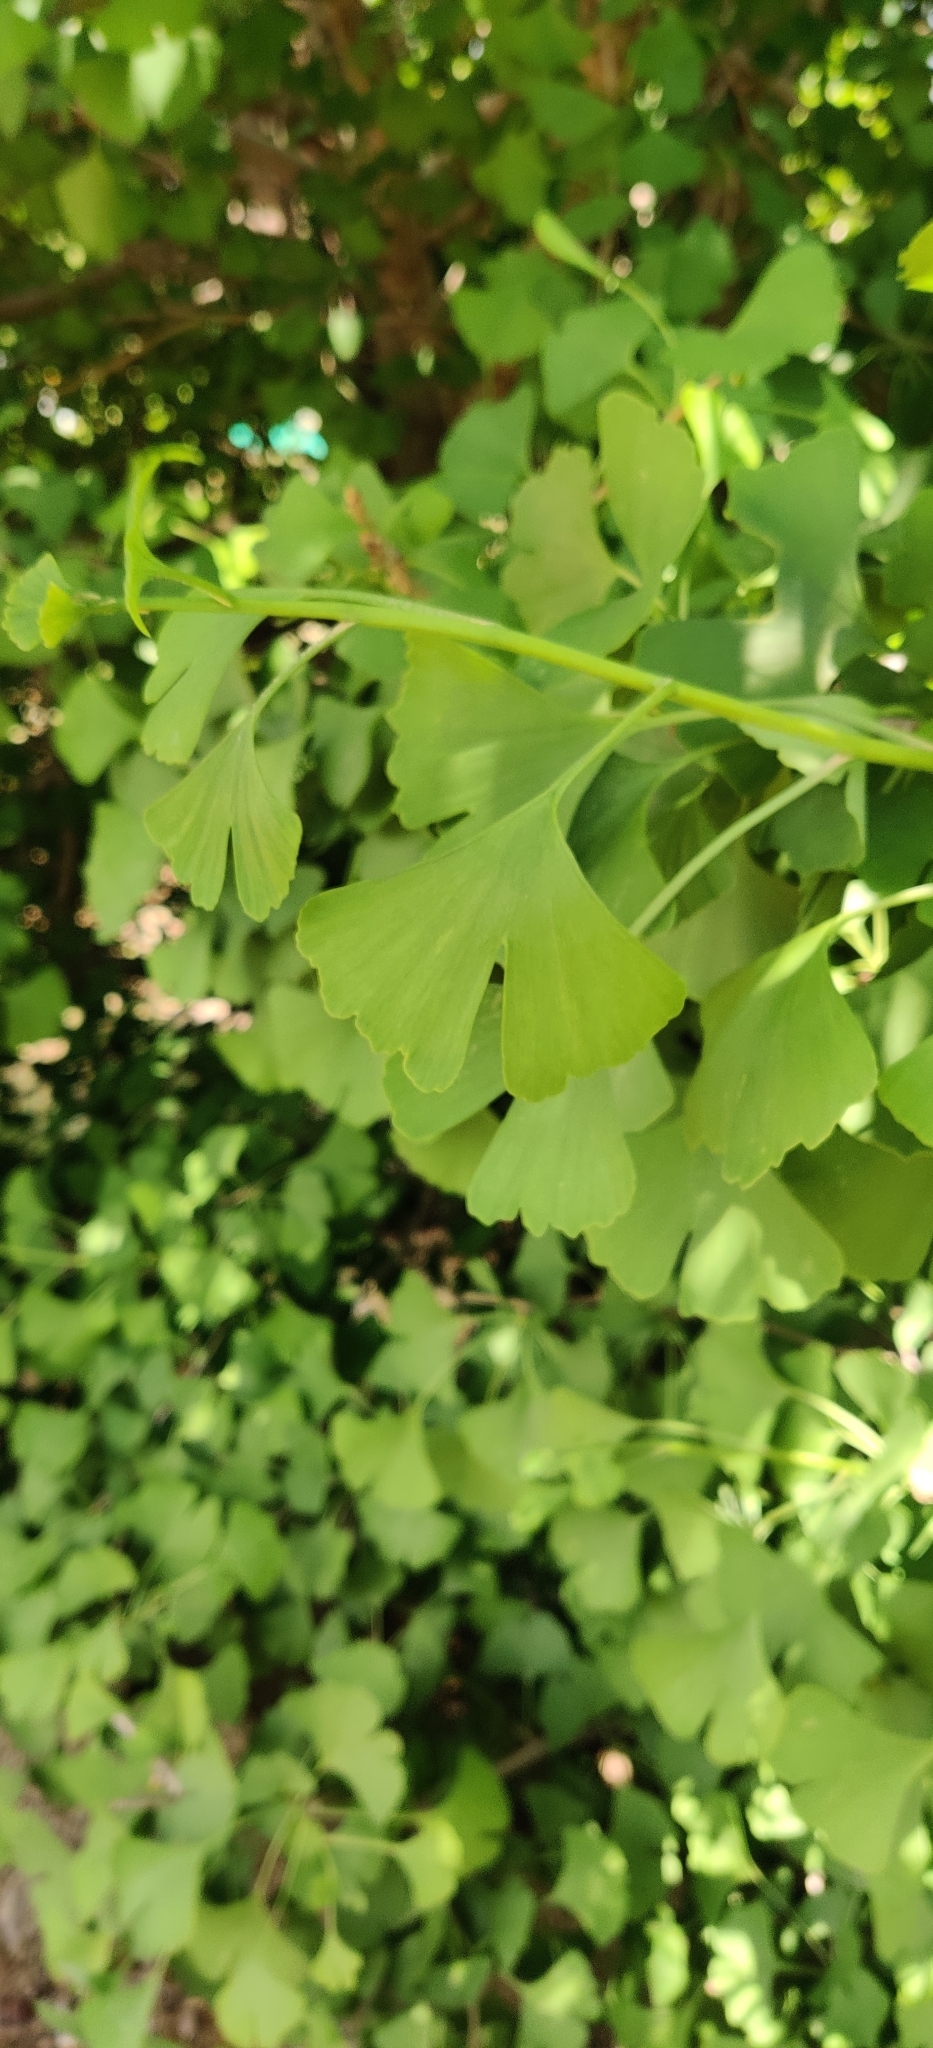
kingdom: Plantae
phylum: Tracheophyta
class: Ginkgoopsida
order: Ginkgoales
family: Ginkgoaceae
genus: Ginkgo
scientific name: Ginkgo biloba
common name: Ginkgo
